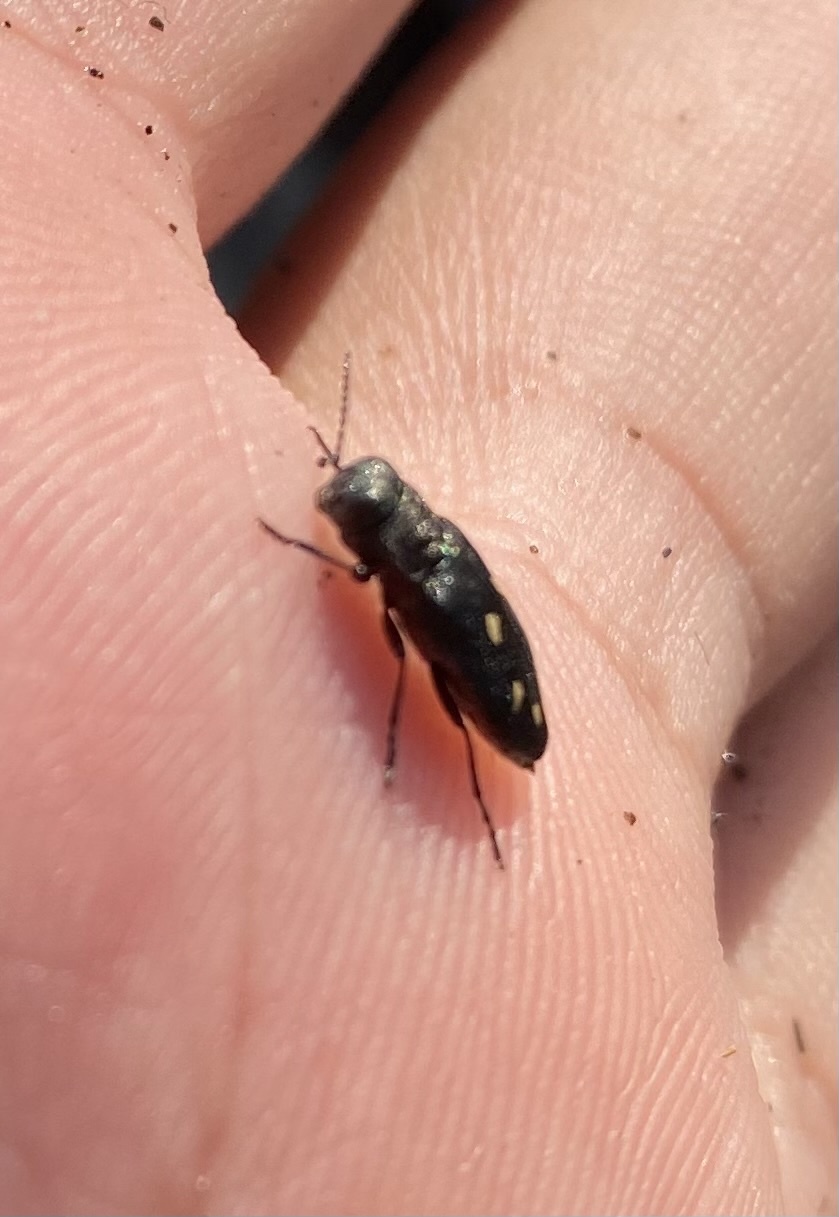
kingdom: Animalia
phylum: Arthropoda
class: Insecta
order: Coleoptera
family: Buprestidae
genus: Phaenops
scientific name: Phaenops guttulata
